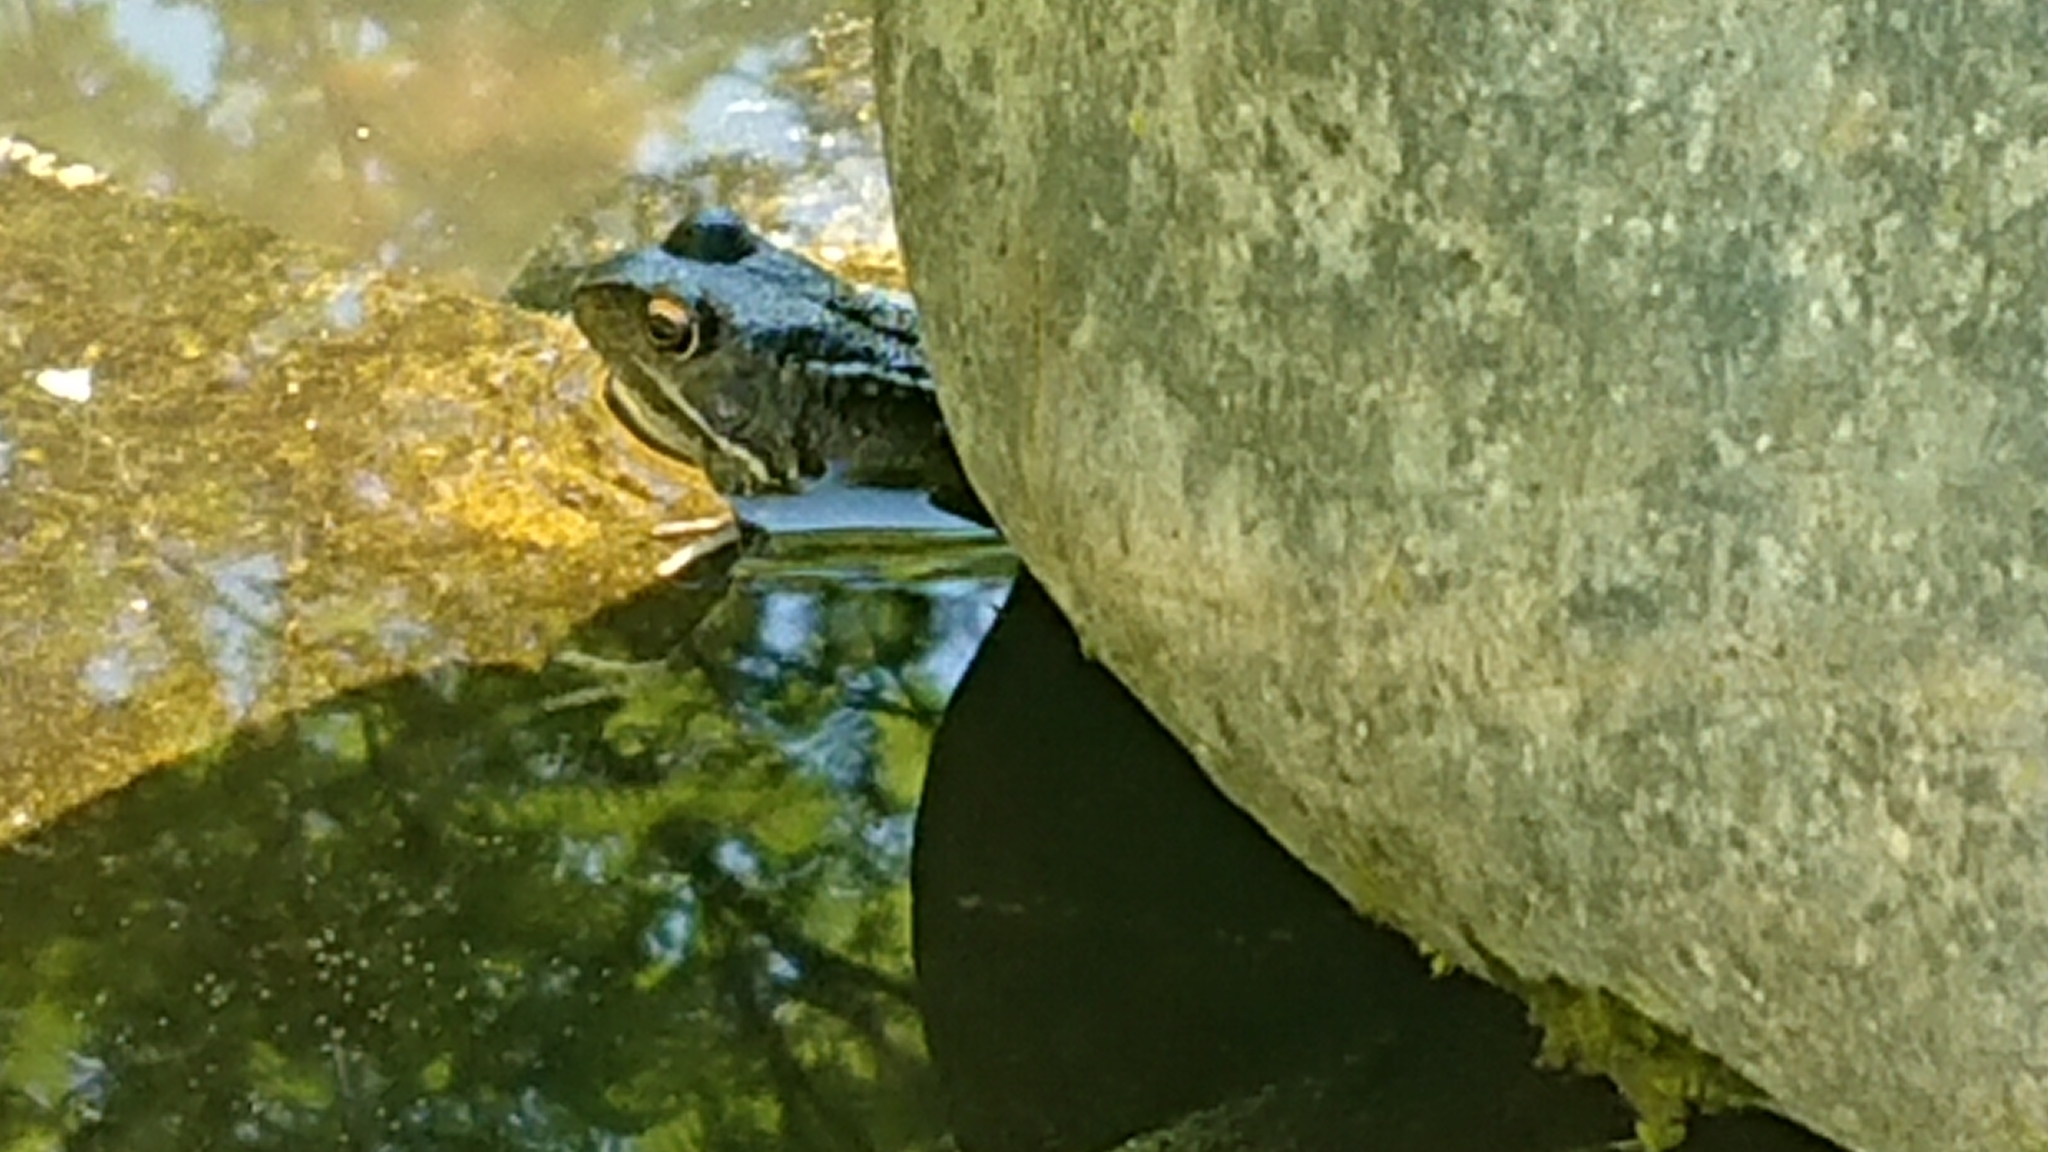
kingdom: Animalia
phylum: Chordata
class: Amphibia
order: Anura
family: Ranidae
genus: Rana
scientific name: Rana temporaria
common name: Common frog
